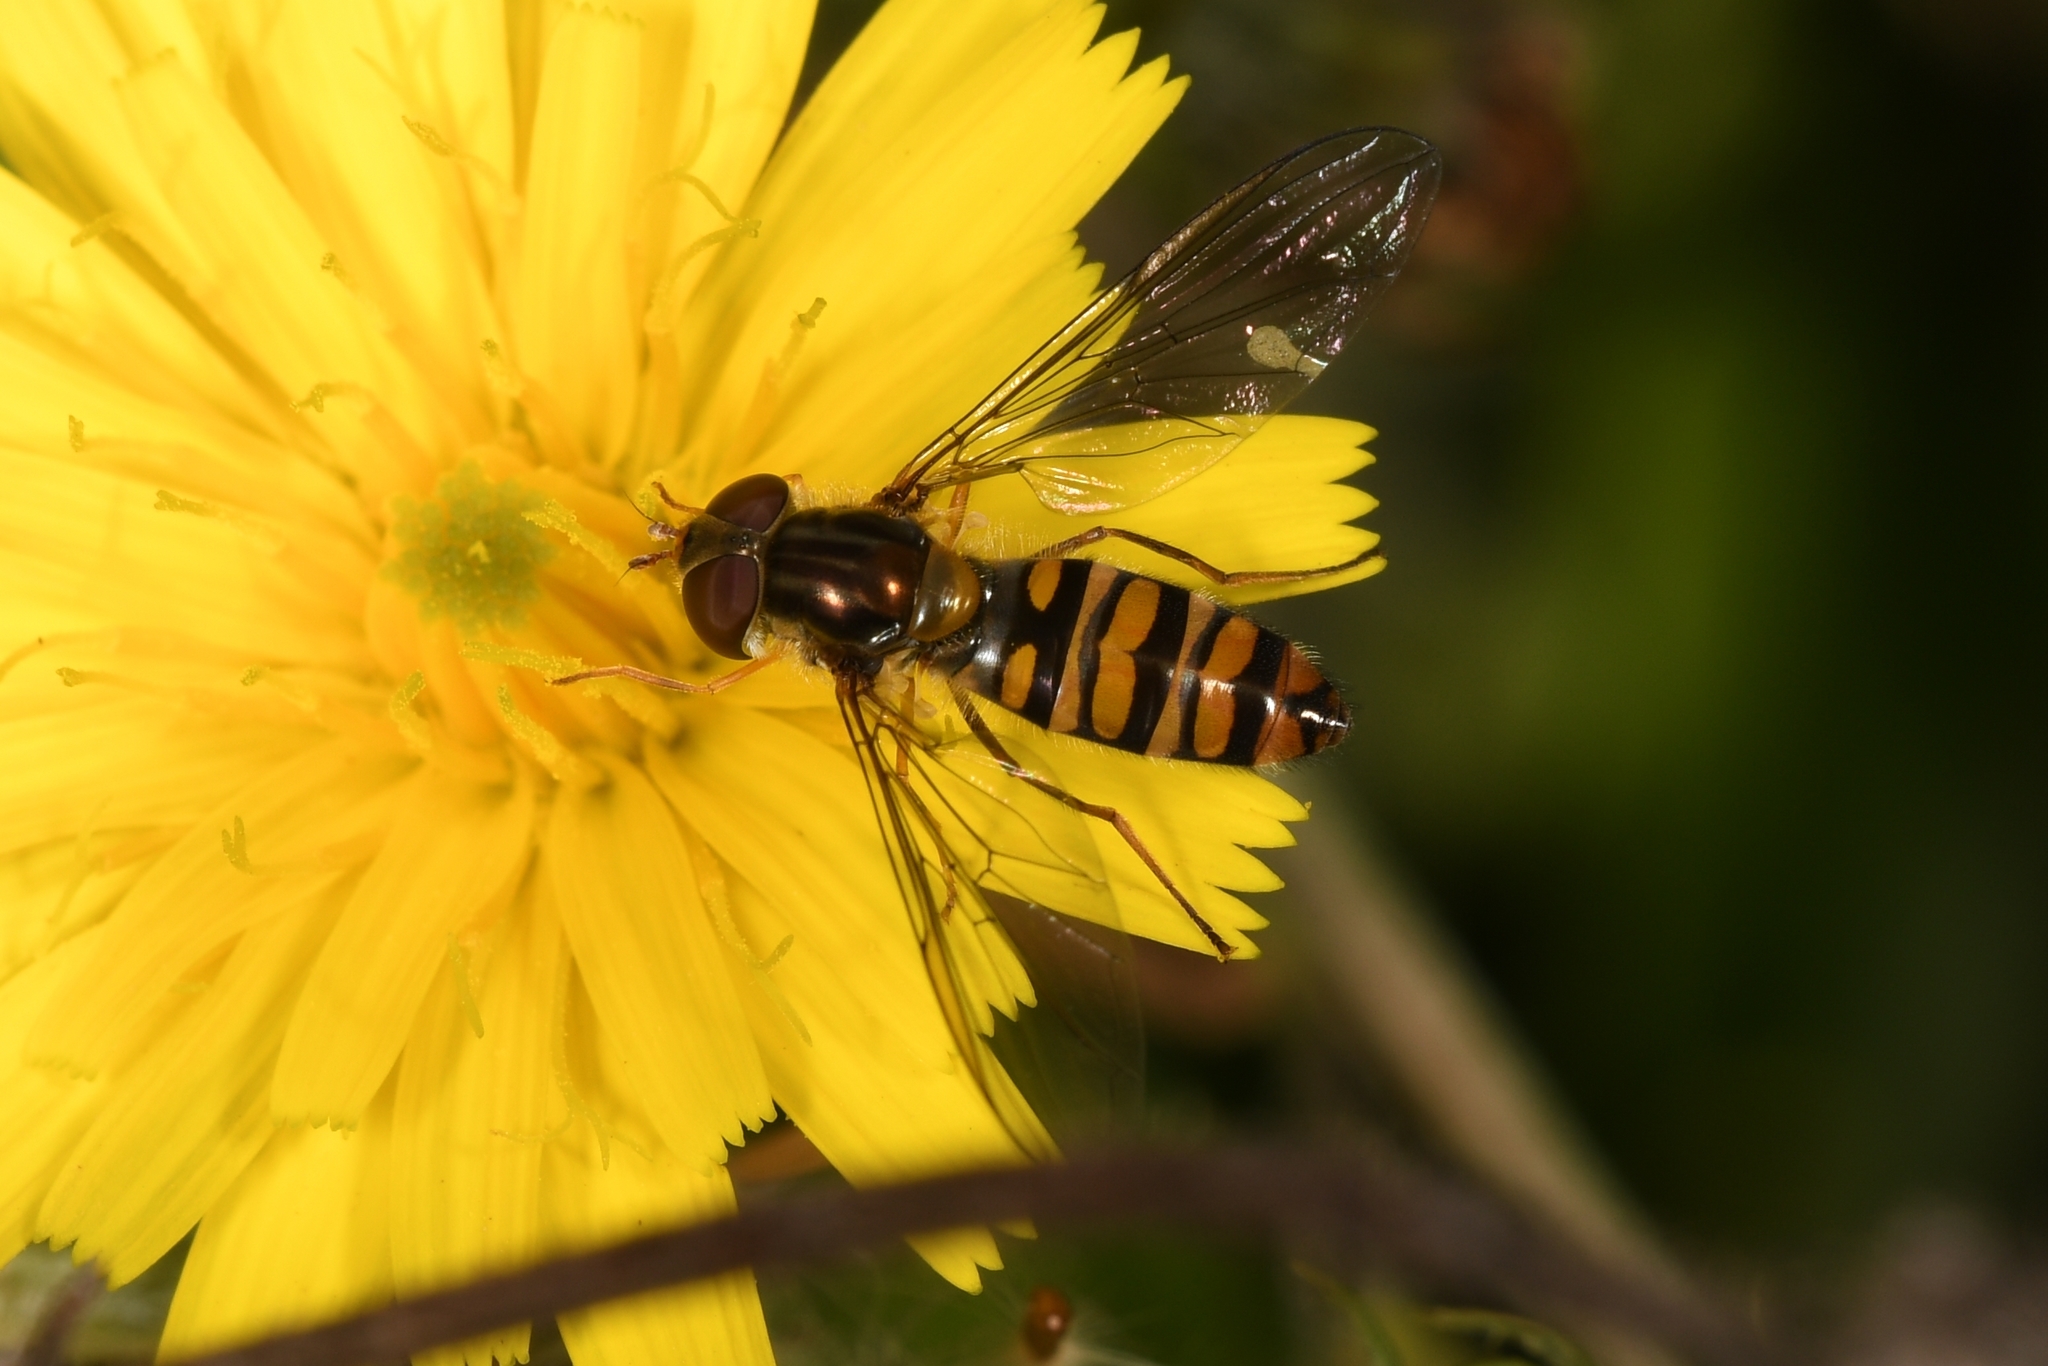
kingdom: Animalia
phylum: Arthropoda
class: Insecta
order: Diptera
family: Syrphidae
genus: Episyrphus
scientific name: Episyrphus balteatus
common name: Marmalade hoverfly
